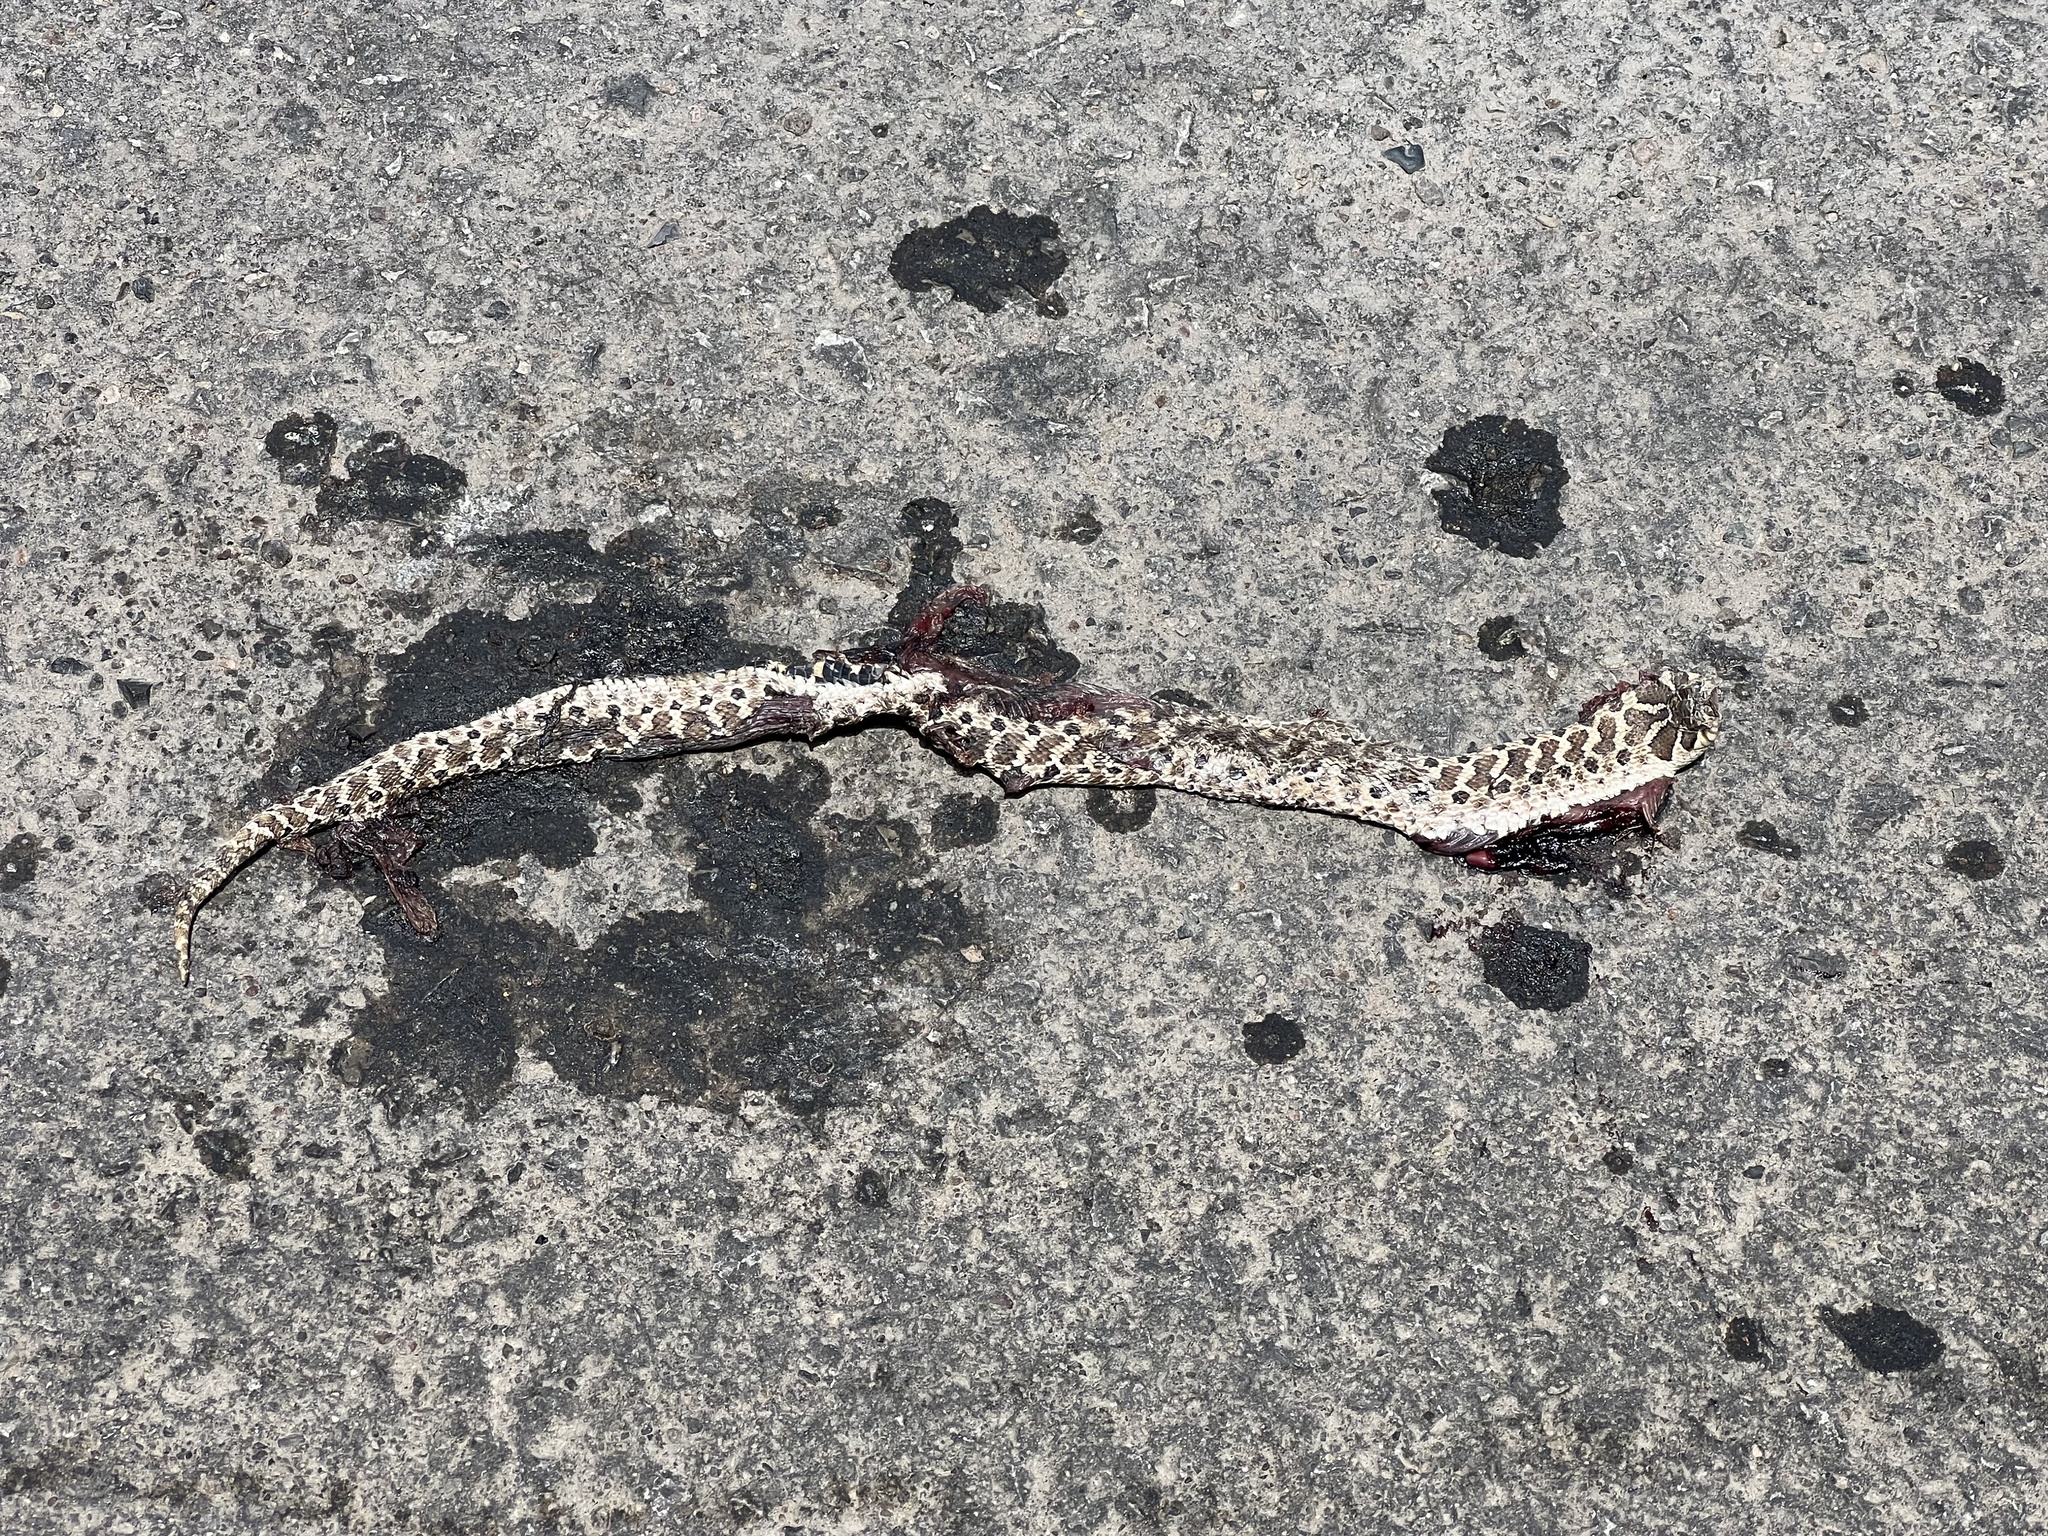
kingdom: Animalia
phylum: Chordata
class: Squamata
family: Colubridae
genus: Heterodon
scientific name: Heterodon kennerlyi
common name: Mexican hognose snake
